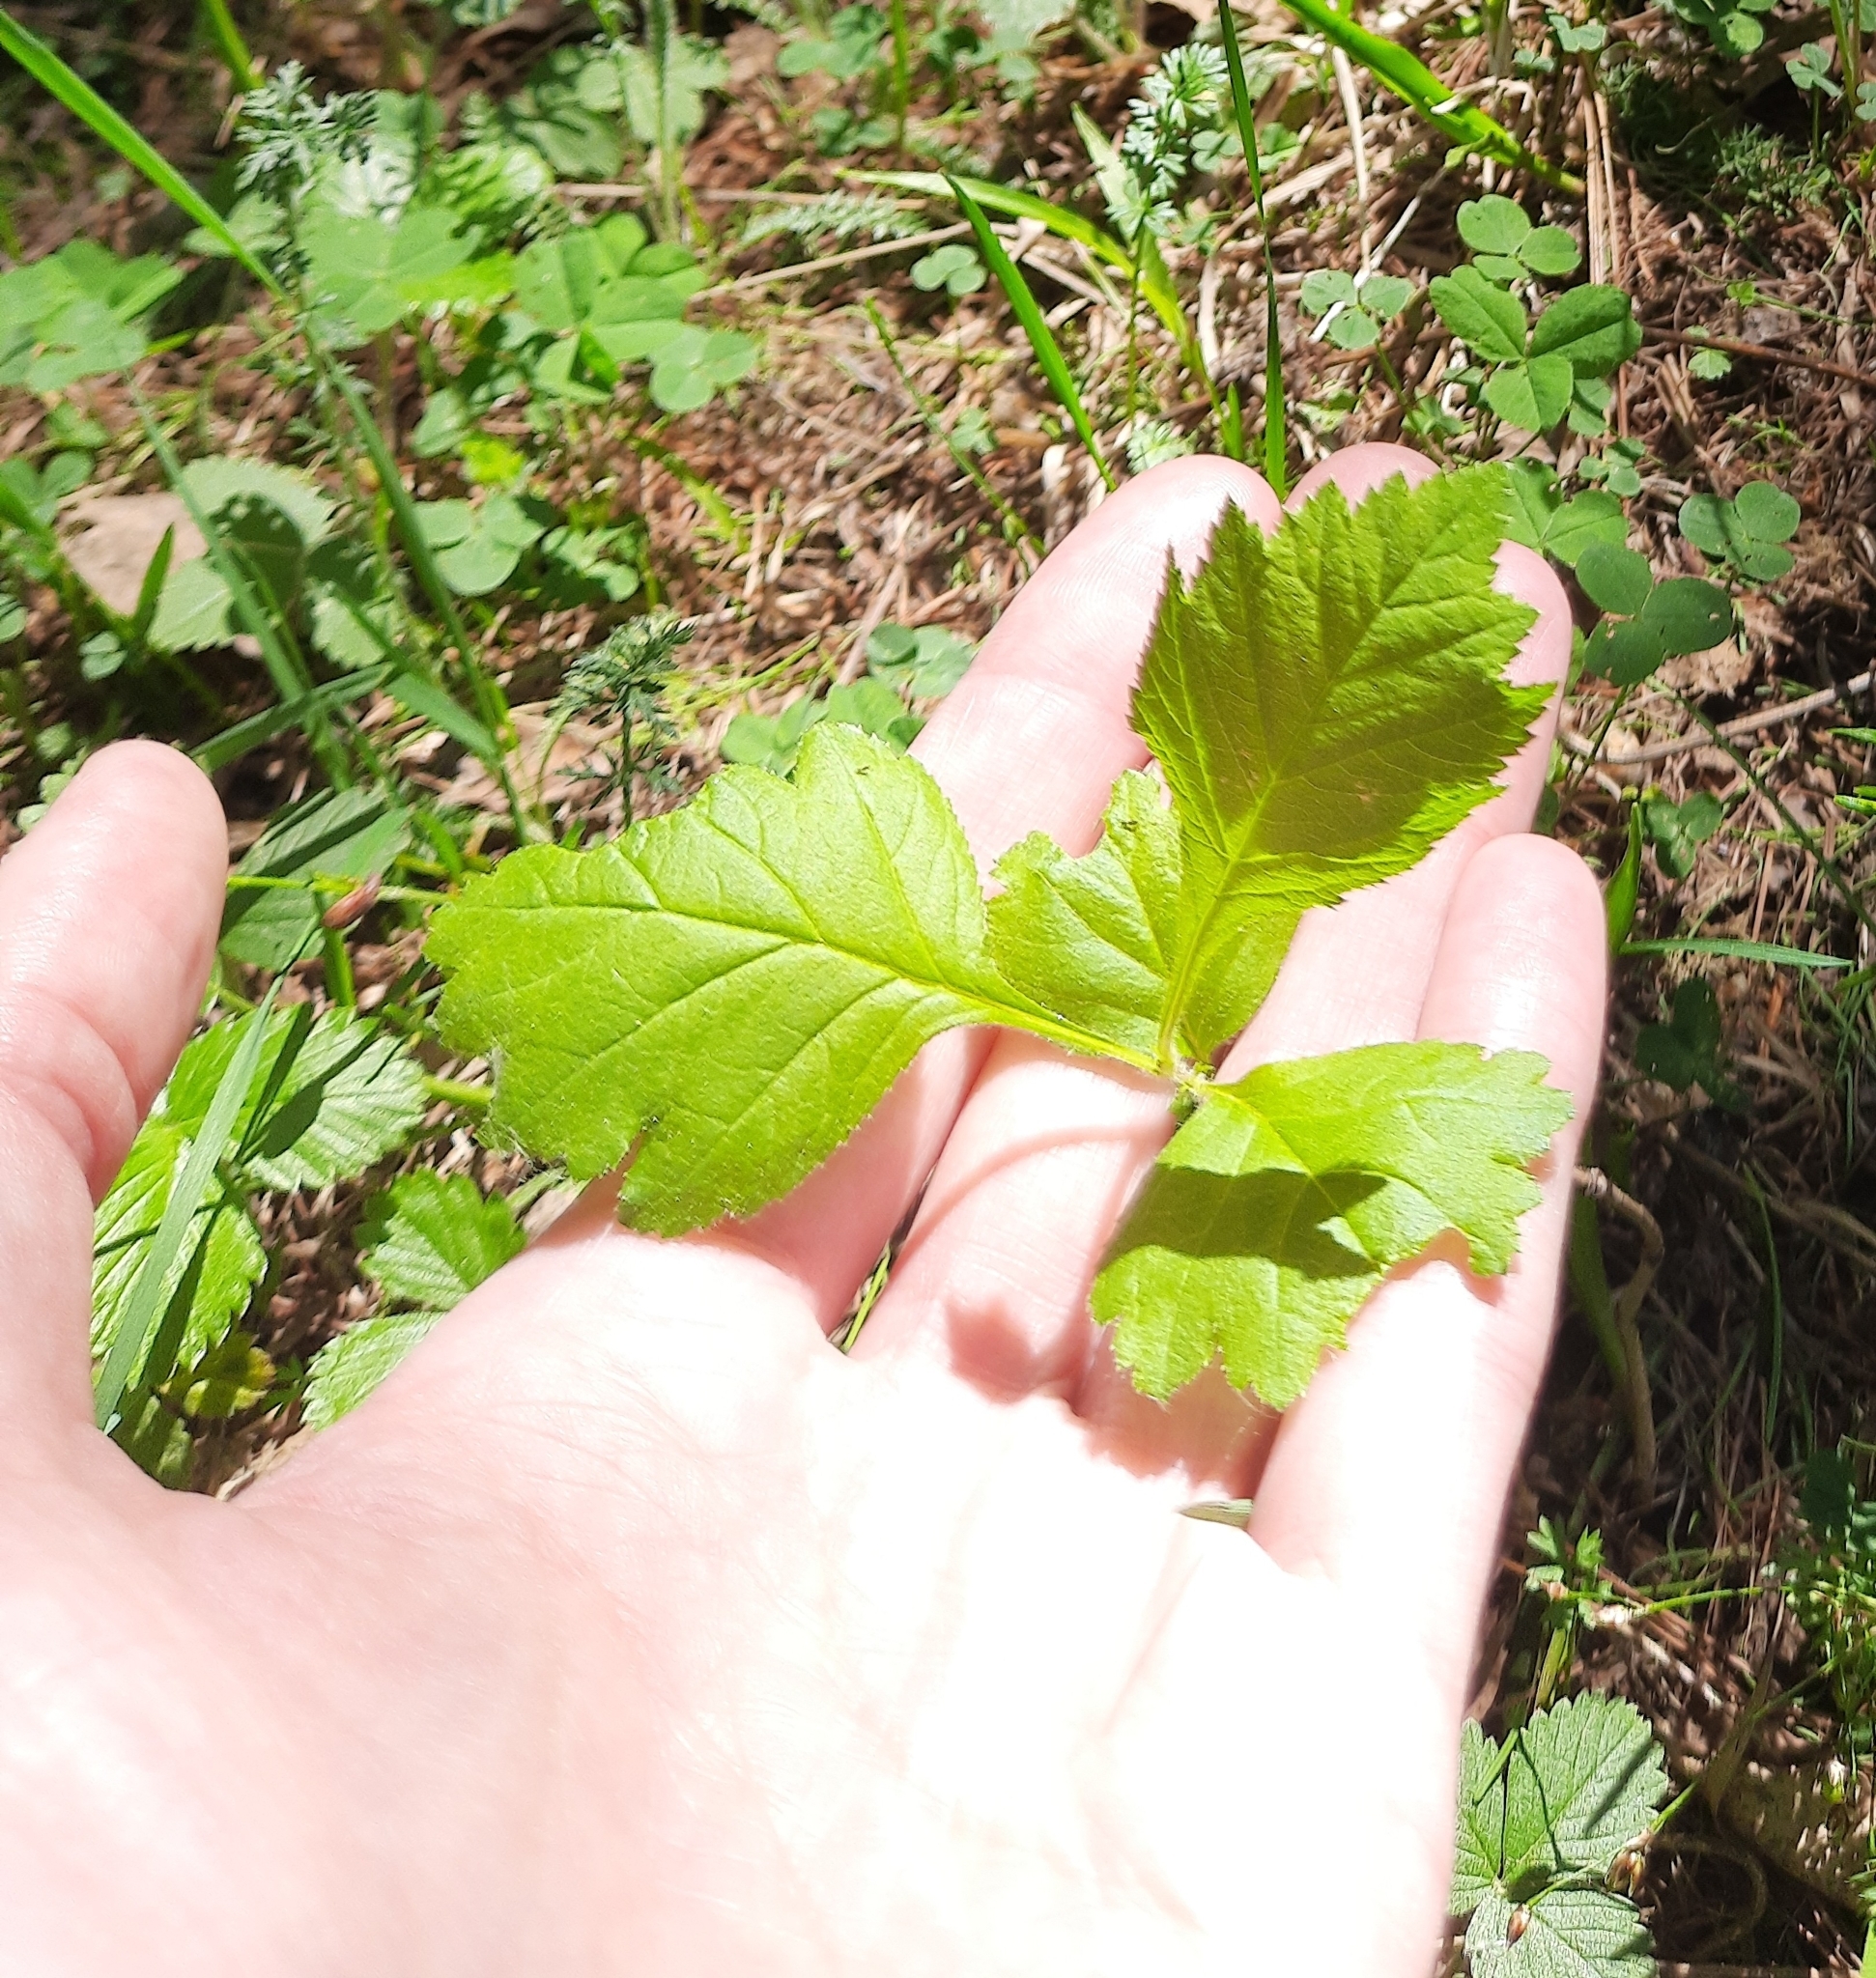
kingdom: Plantae
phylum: Tracheophyta
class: Magnoliopsida
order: Rosales
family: Rosaceae
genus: Crataegus
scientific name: Crataegus sanguinea
